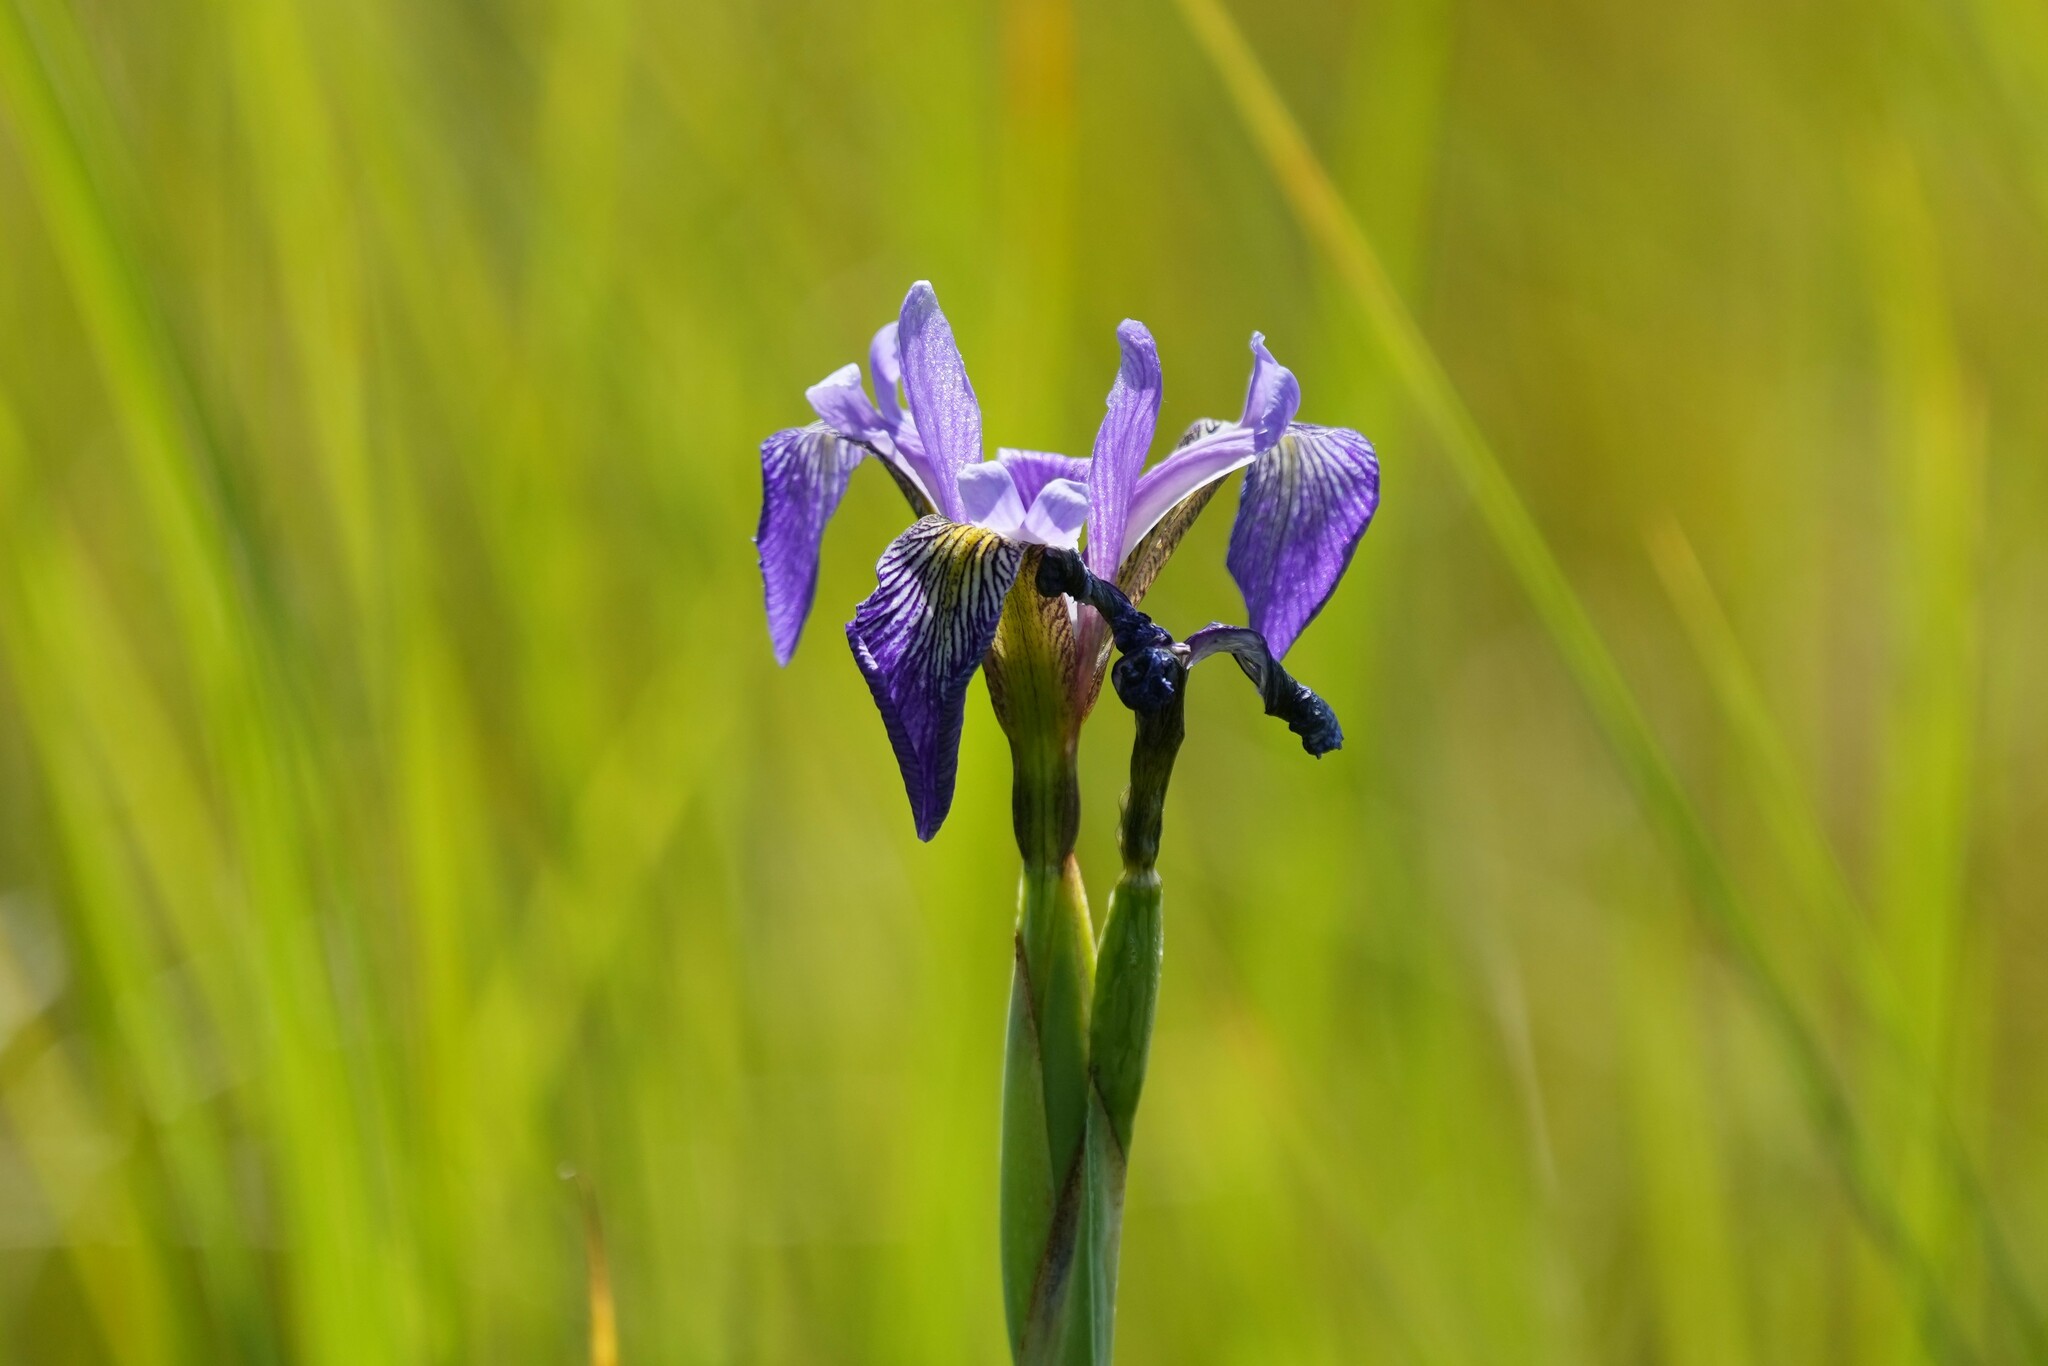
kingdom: Plantae
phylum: Tracheophyta
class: Liliopsida
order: Asparagales
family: Iridaceae
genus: Iris
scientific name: Iris versicolor
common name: Purple iris
